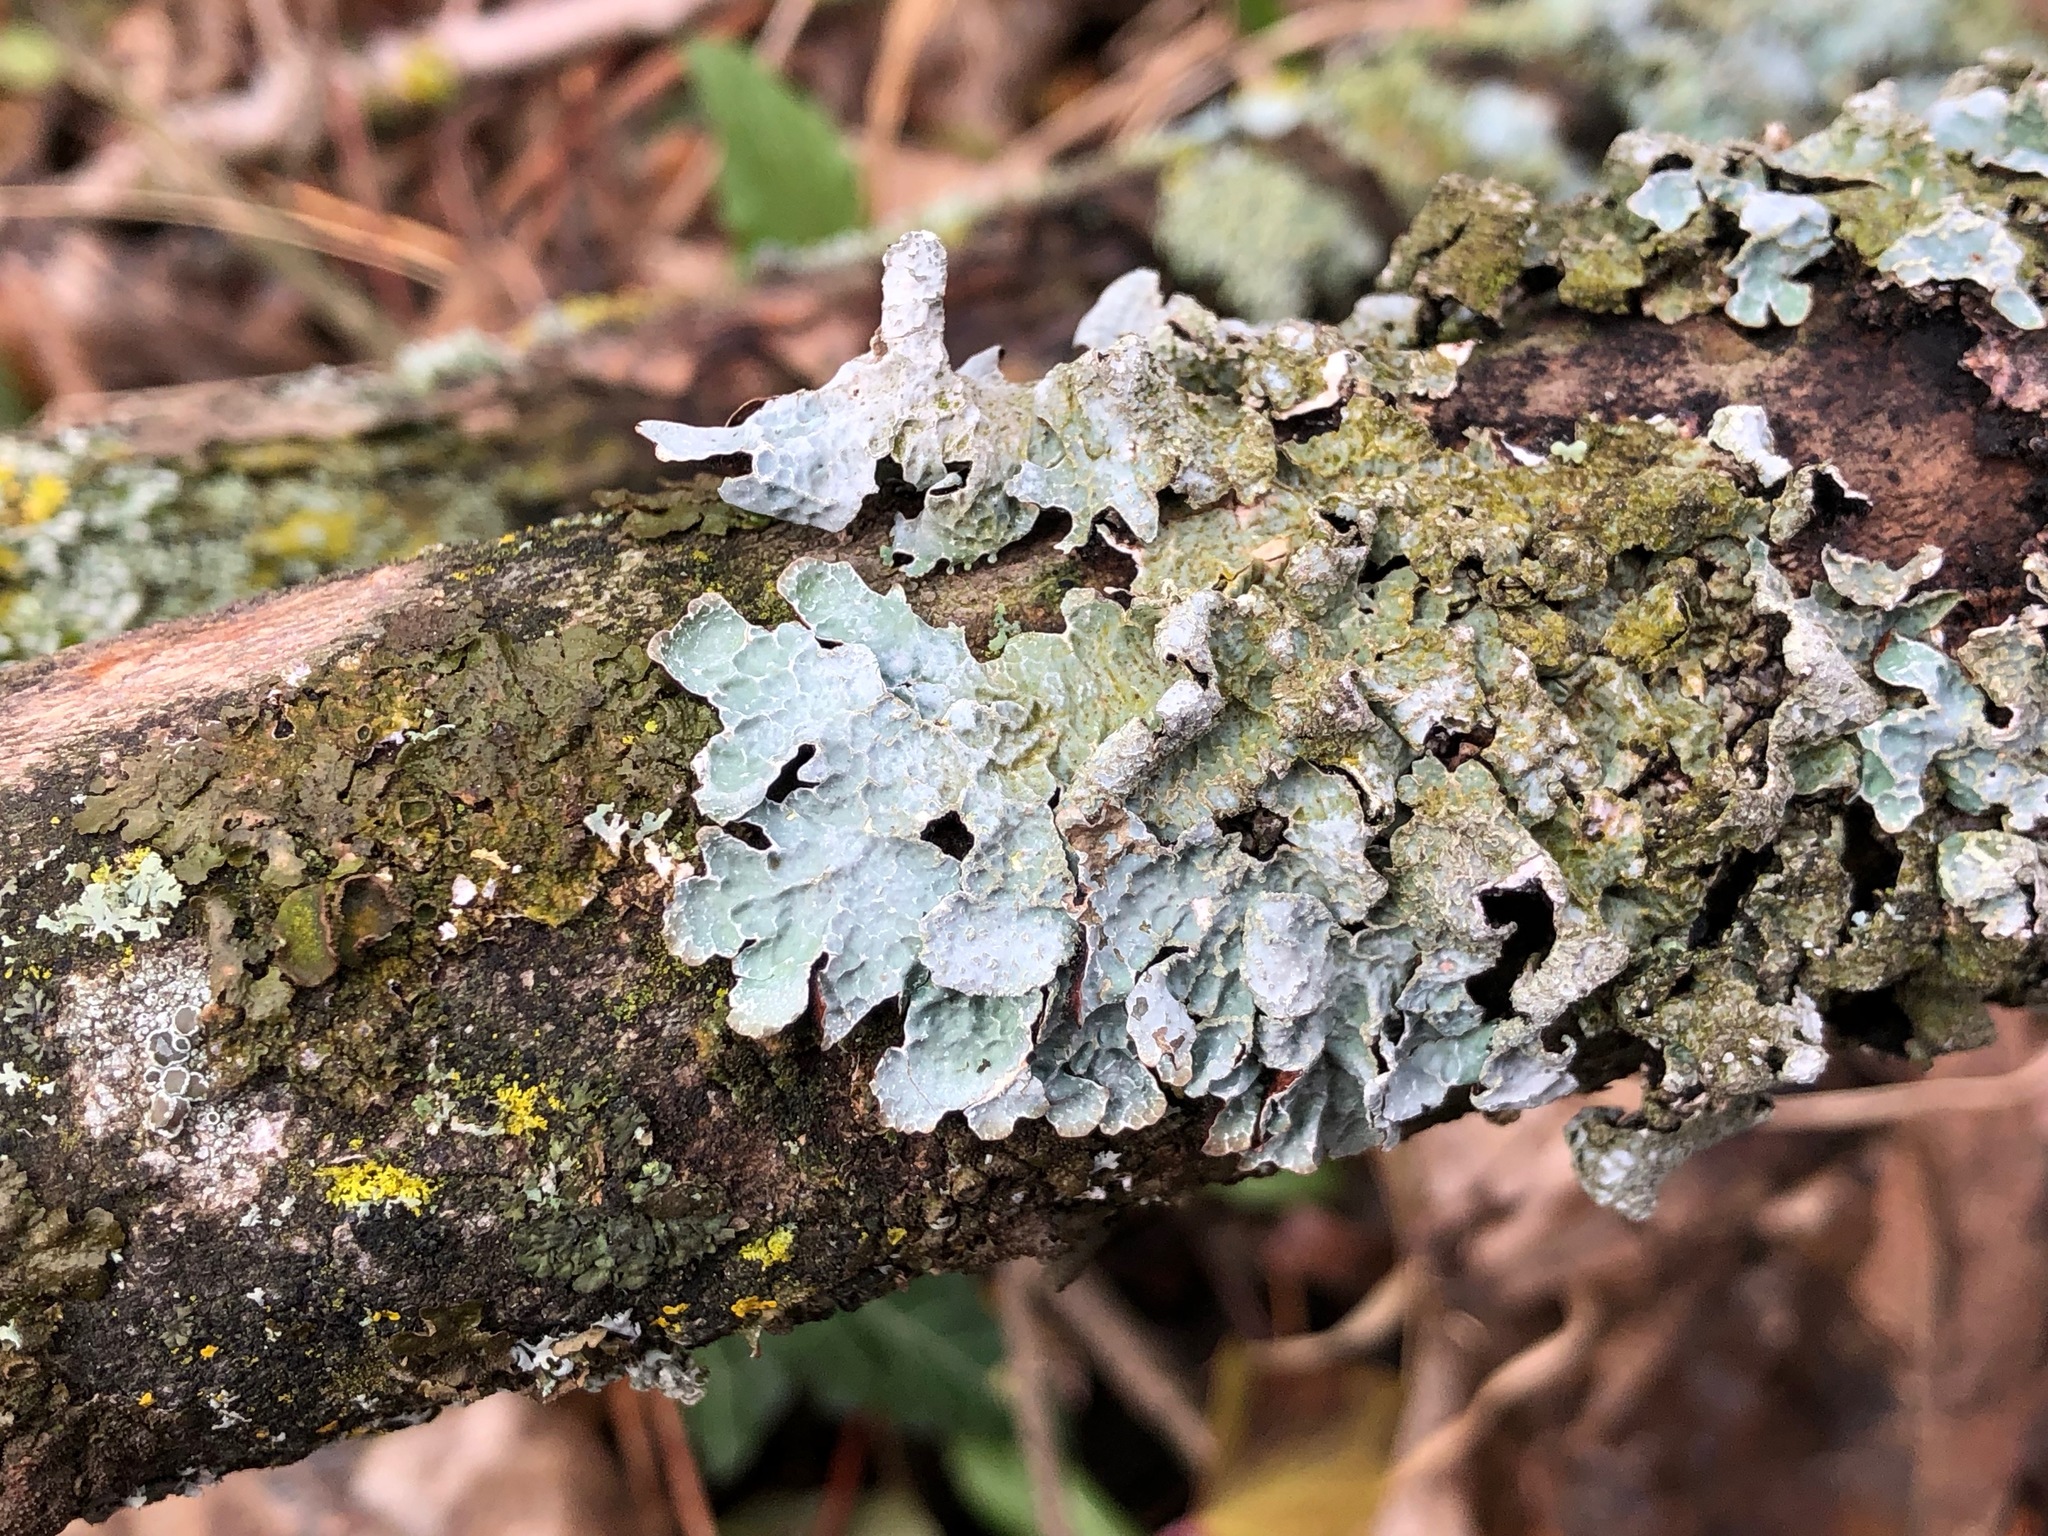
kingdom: Fungi
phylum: Ascomycota
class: Lecanoromycetes
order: Lecanorales
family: Parmeliaceae
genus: Parmelia
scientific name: Parmelia sulcata
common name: Netted shield lichen
